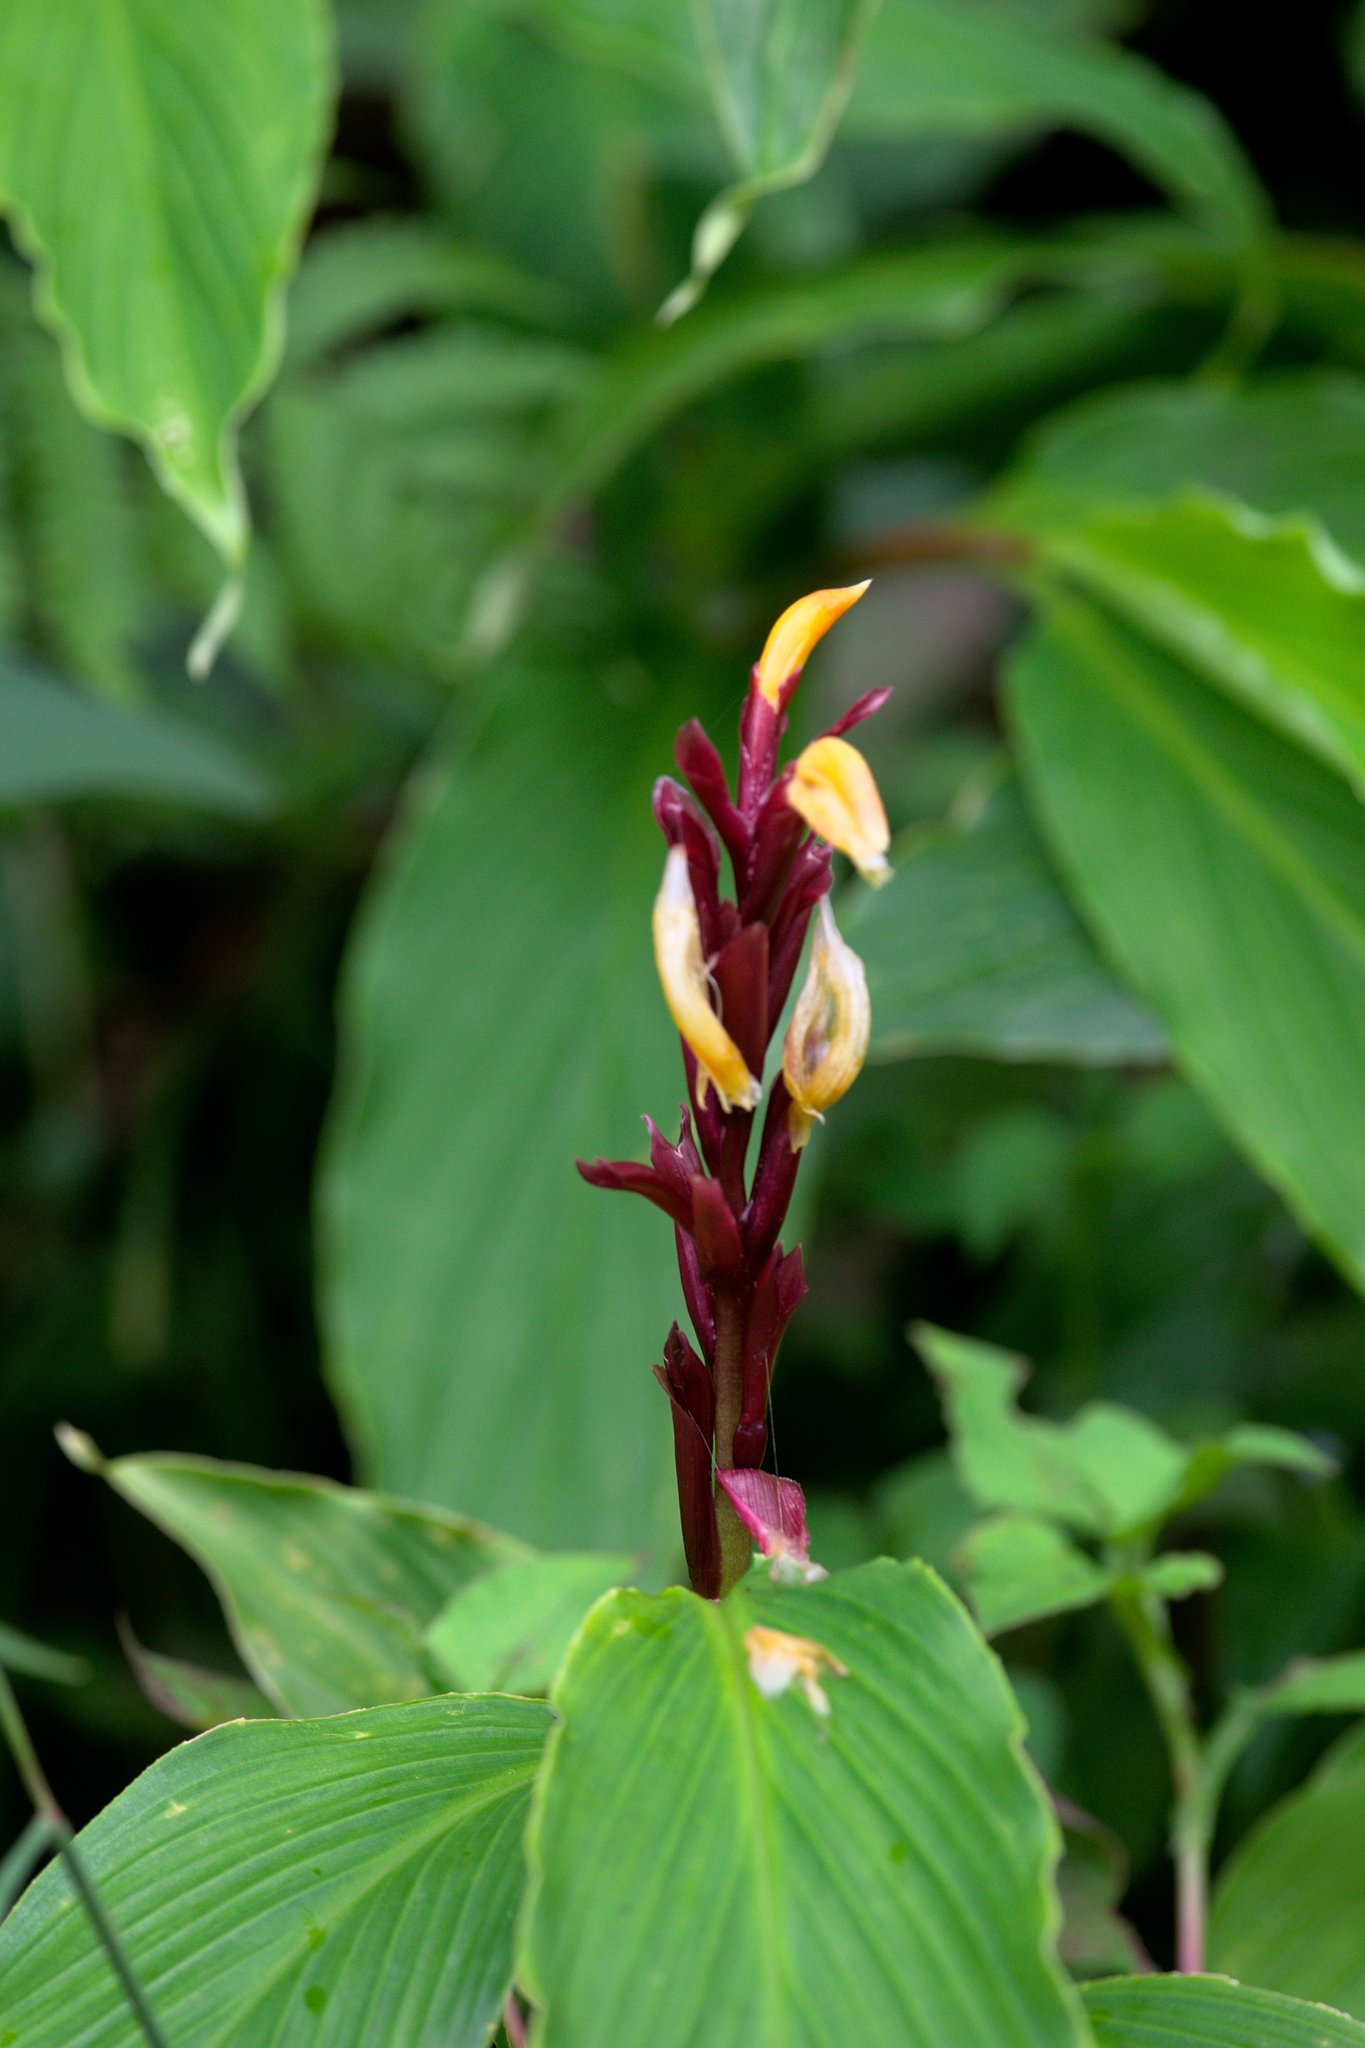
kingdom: Plantae
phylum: Tracheophyta
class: Liliopsida
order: Zingiberales
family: Zingiberaceae
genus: Cautleya
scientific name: Cautleya spicata
